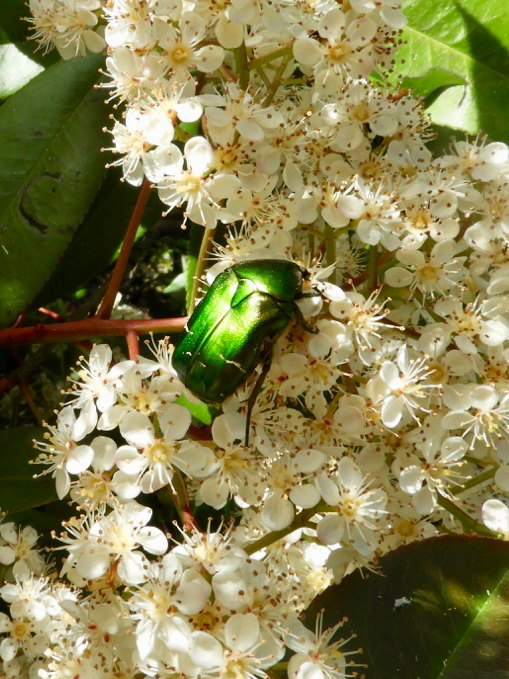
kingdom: Animalia
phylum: Arthropoda
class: Insecta
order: Coleoptera
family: Scarabaeidae
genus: Cetonia
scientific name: Cetonia aurata
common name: Rose chafer
